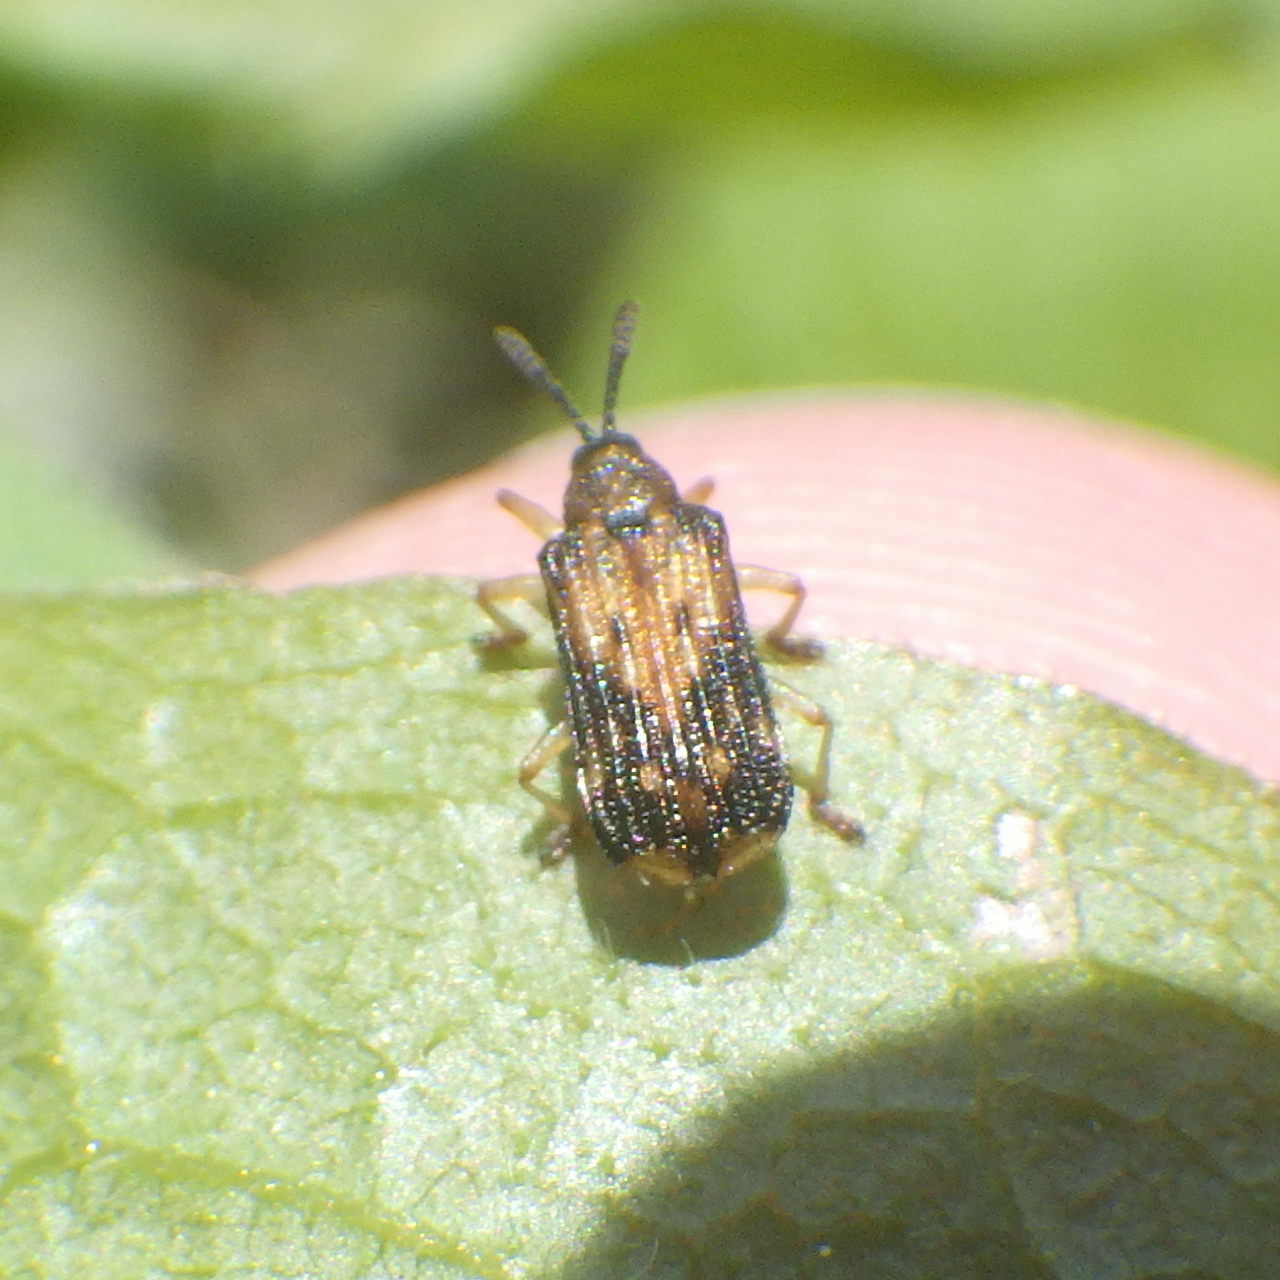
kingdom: Animalia
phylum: Arthropoda
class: Insecta
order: Coleoptera
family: Chrysomelidae
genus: Sumitrosis
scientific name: Sumitrosis inaequalis
